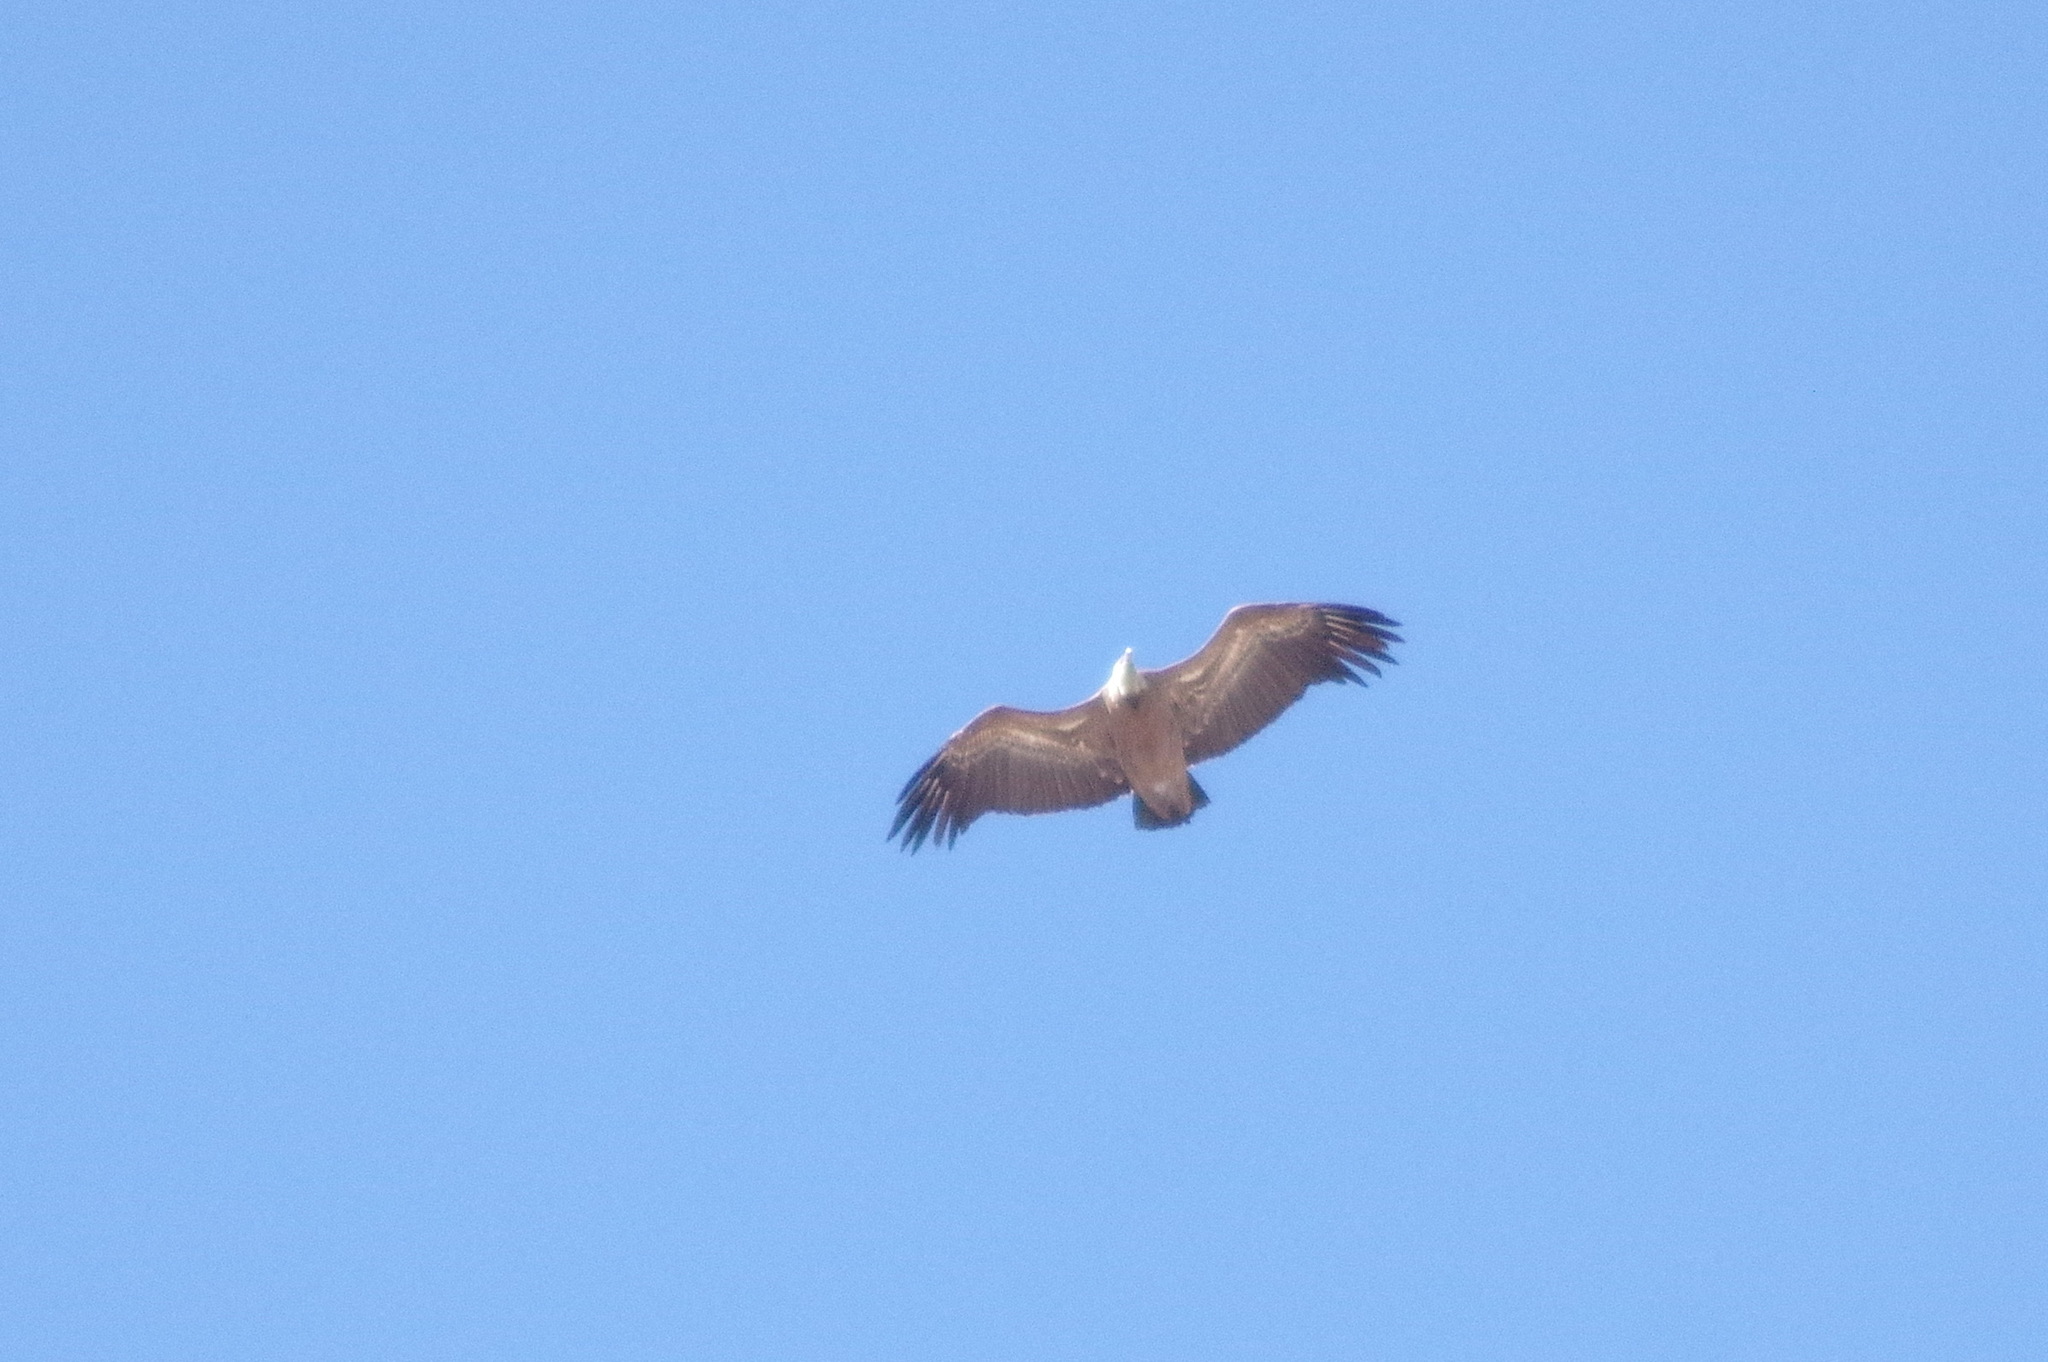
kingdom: Animalia
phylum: Chordata
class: Aves
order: Accipitriformes
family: Accipitridae
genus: Gyps
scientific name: Gyps fulvus
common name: Griffon vulture
